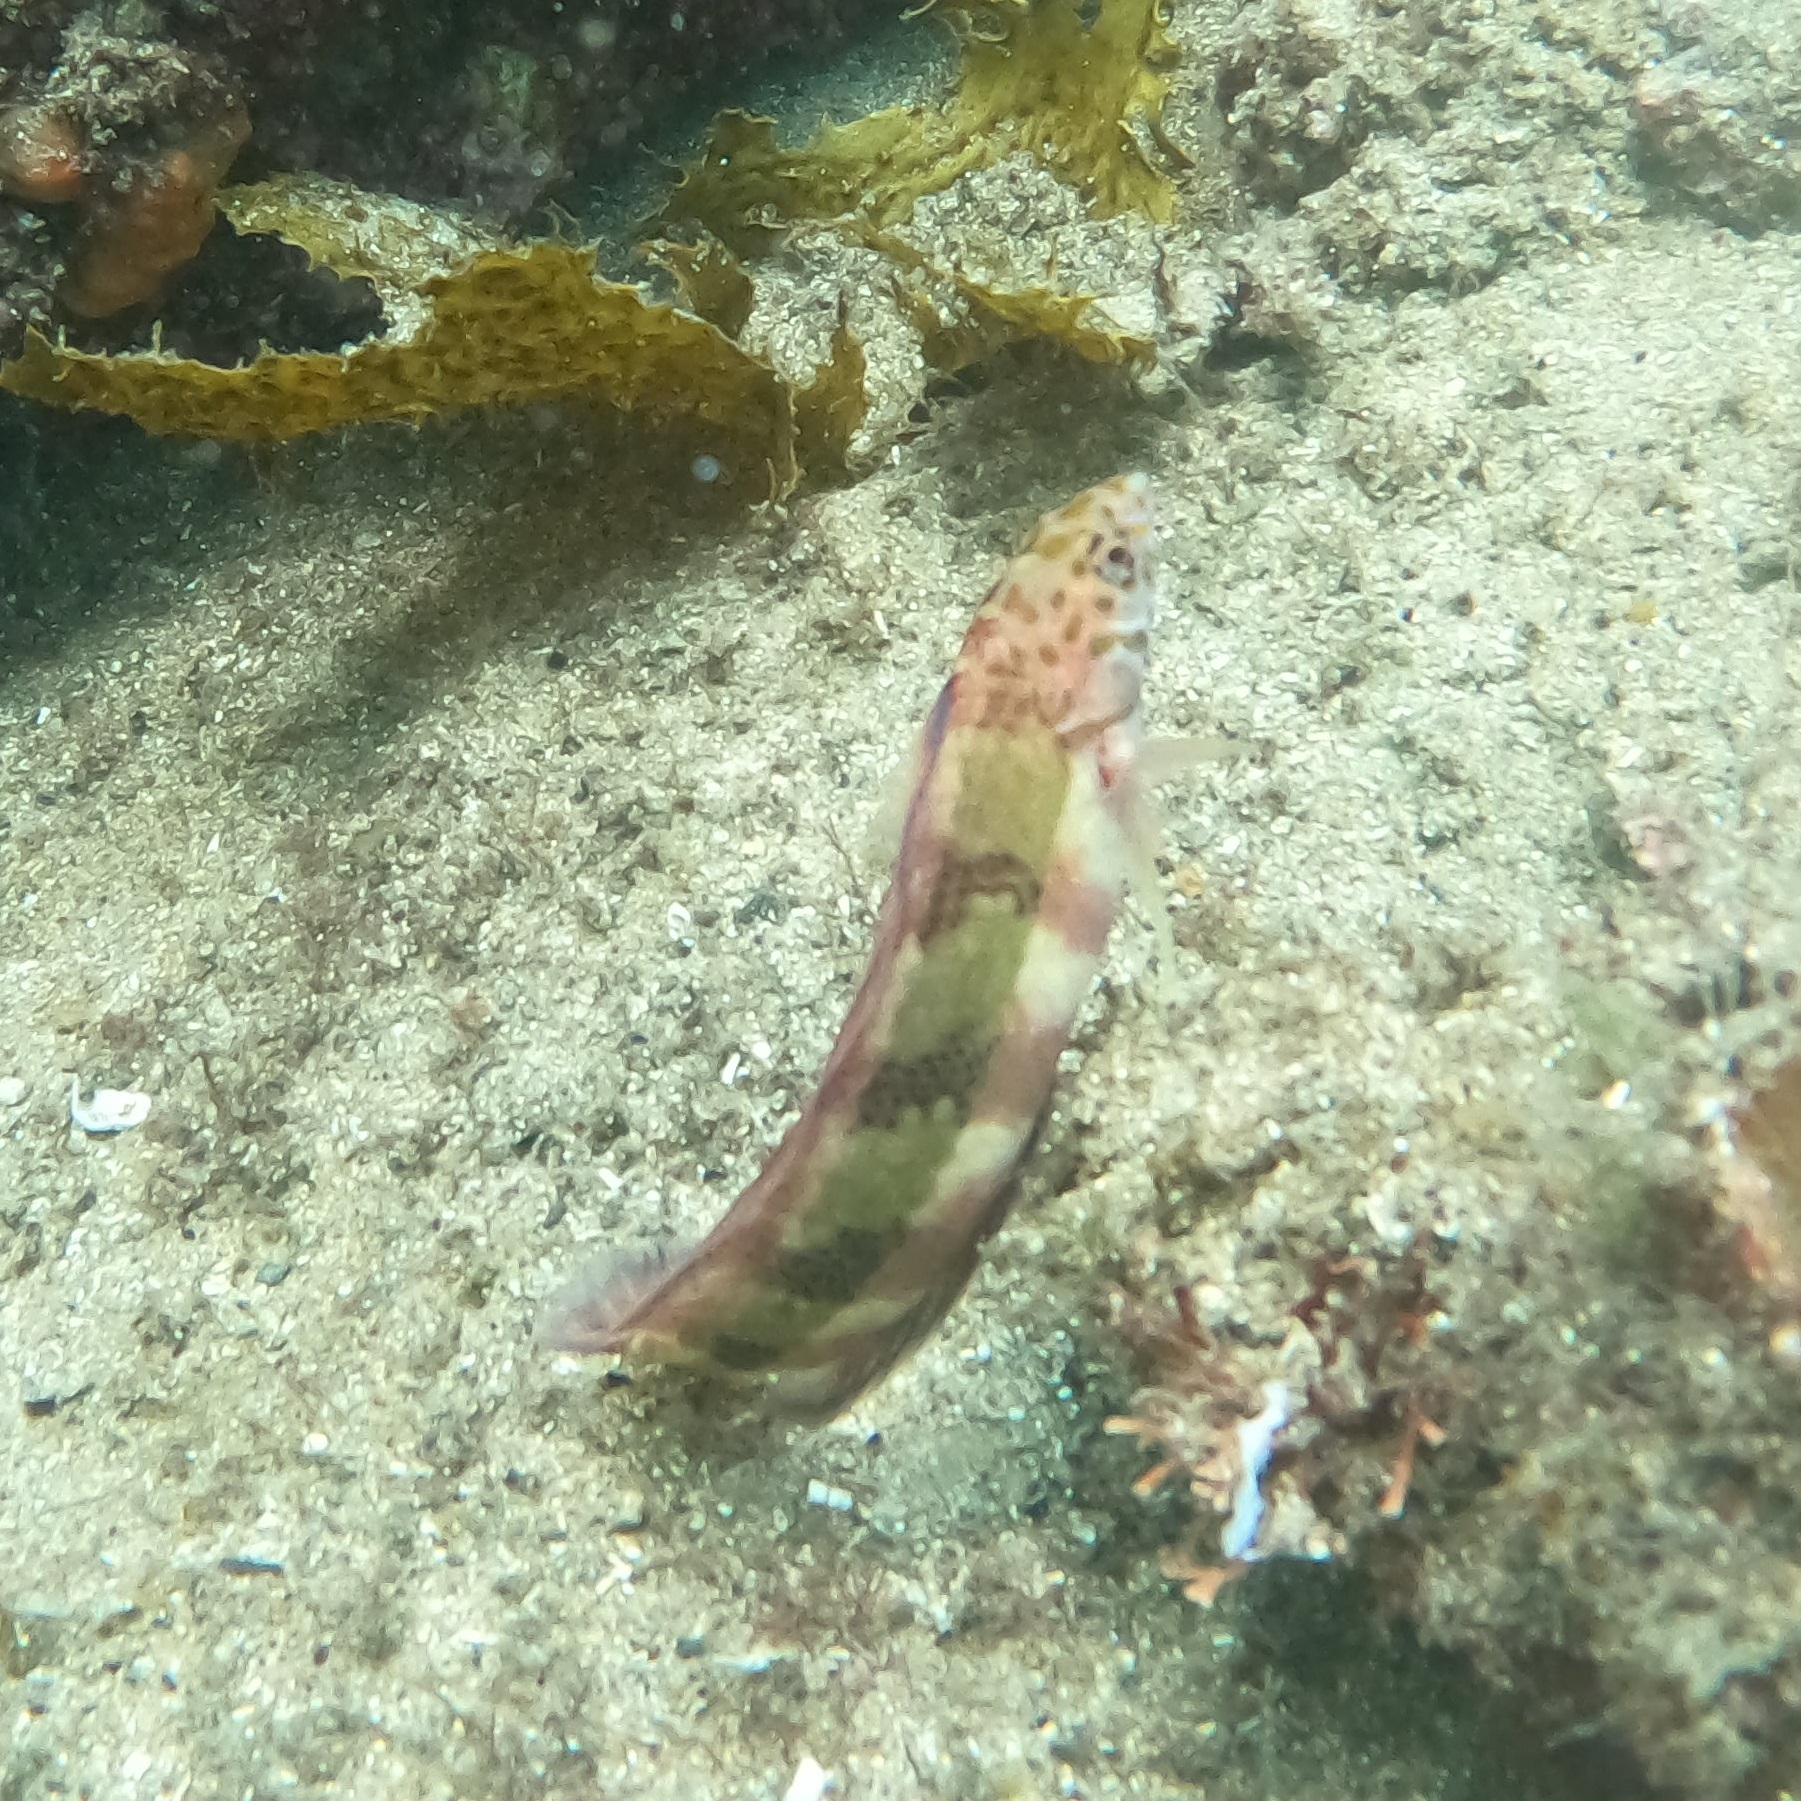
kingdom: Animalia
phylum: Chordata
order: Perciformes
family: Labridae
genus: Eupetrichthys
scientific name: Eupetrichthys angustipes
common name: Snake-skin wrasse
